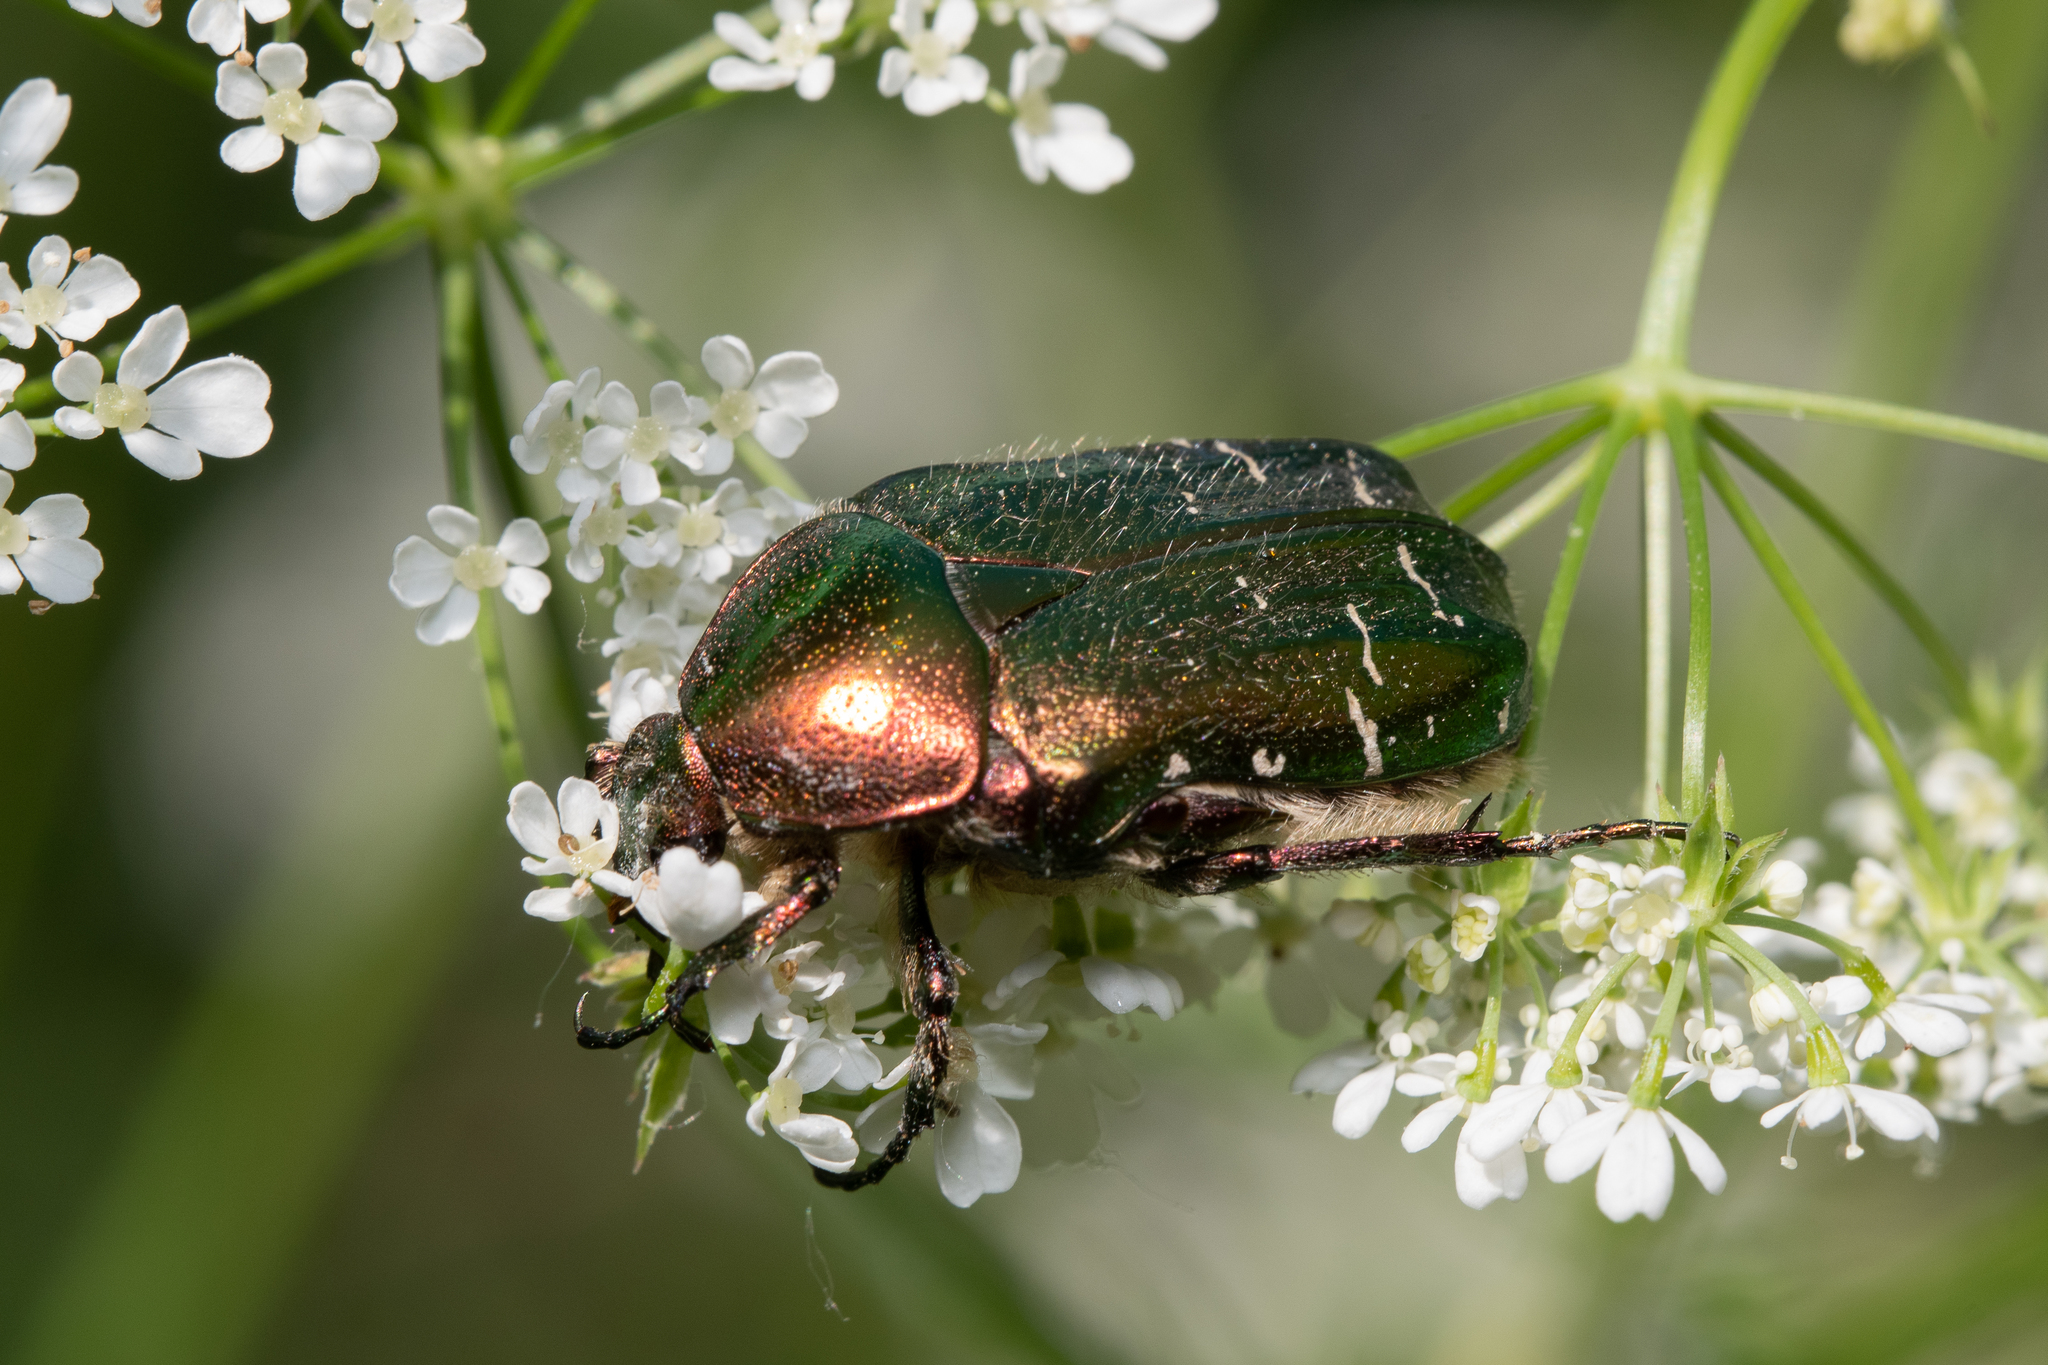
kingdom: Animalia
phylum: Arthropoda
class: Insecta
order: Coleoptera
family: Scarabaeidae
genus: Cetonia
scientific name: Cetonia aurata
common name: Rose chafer
